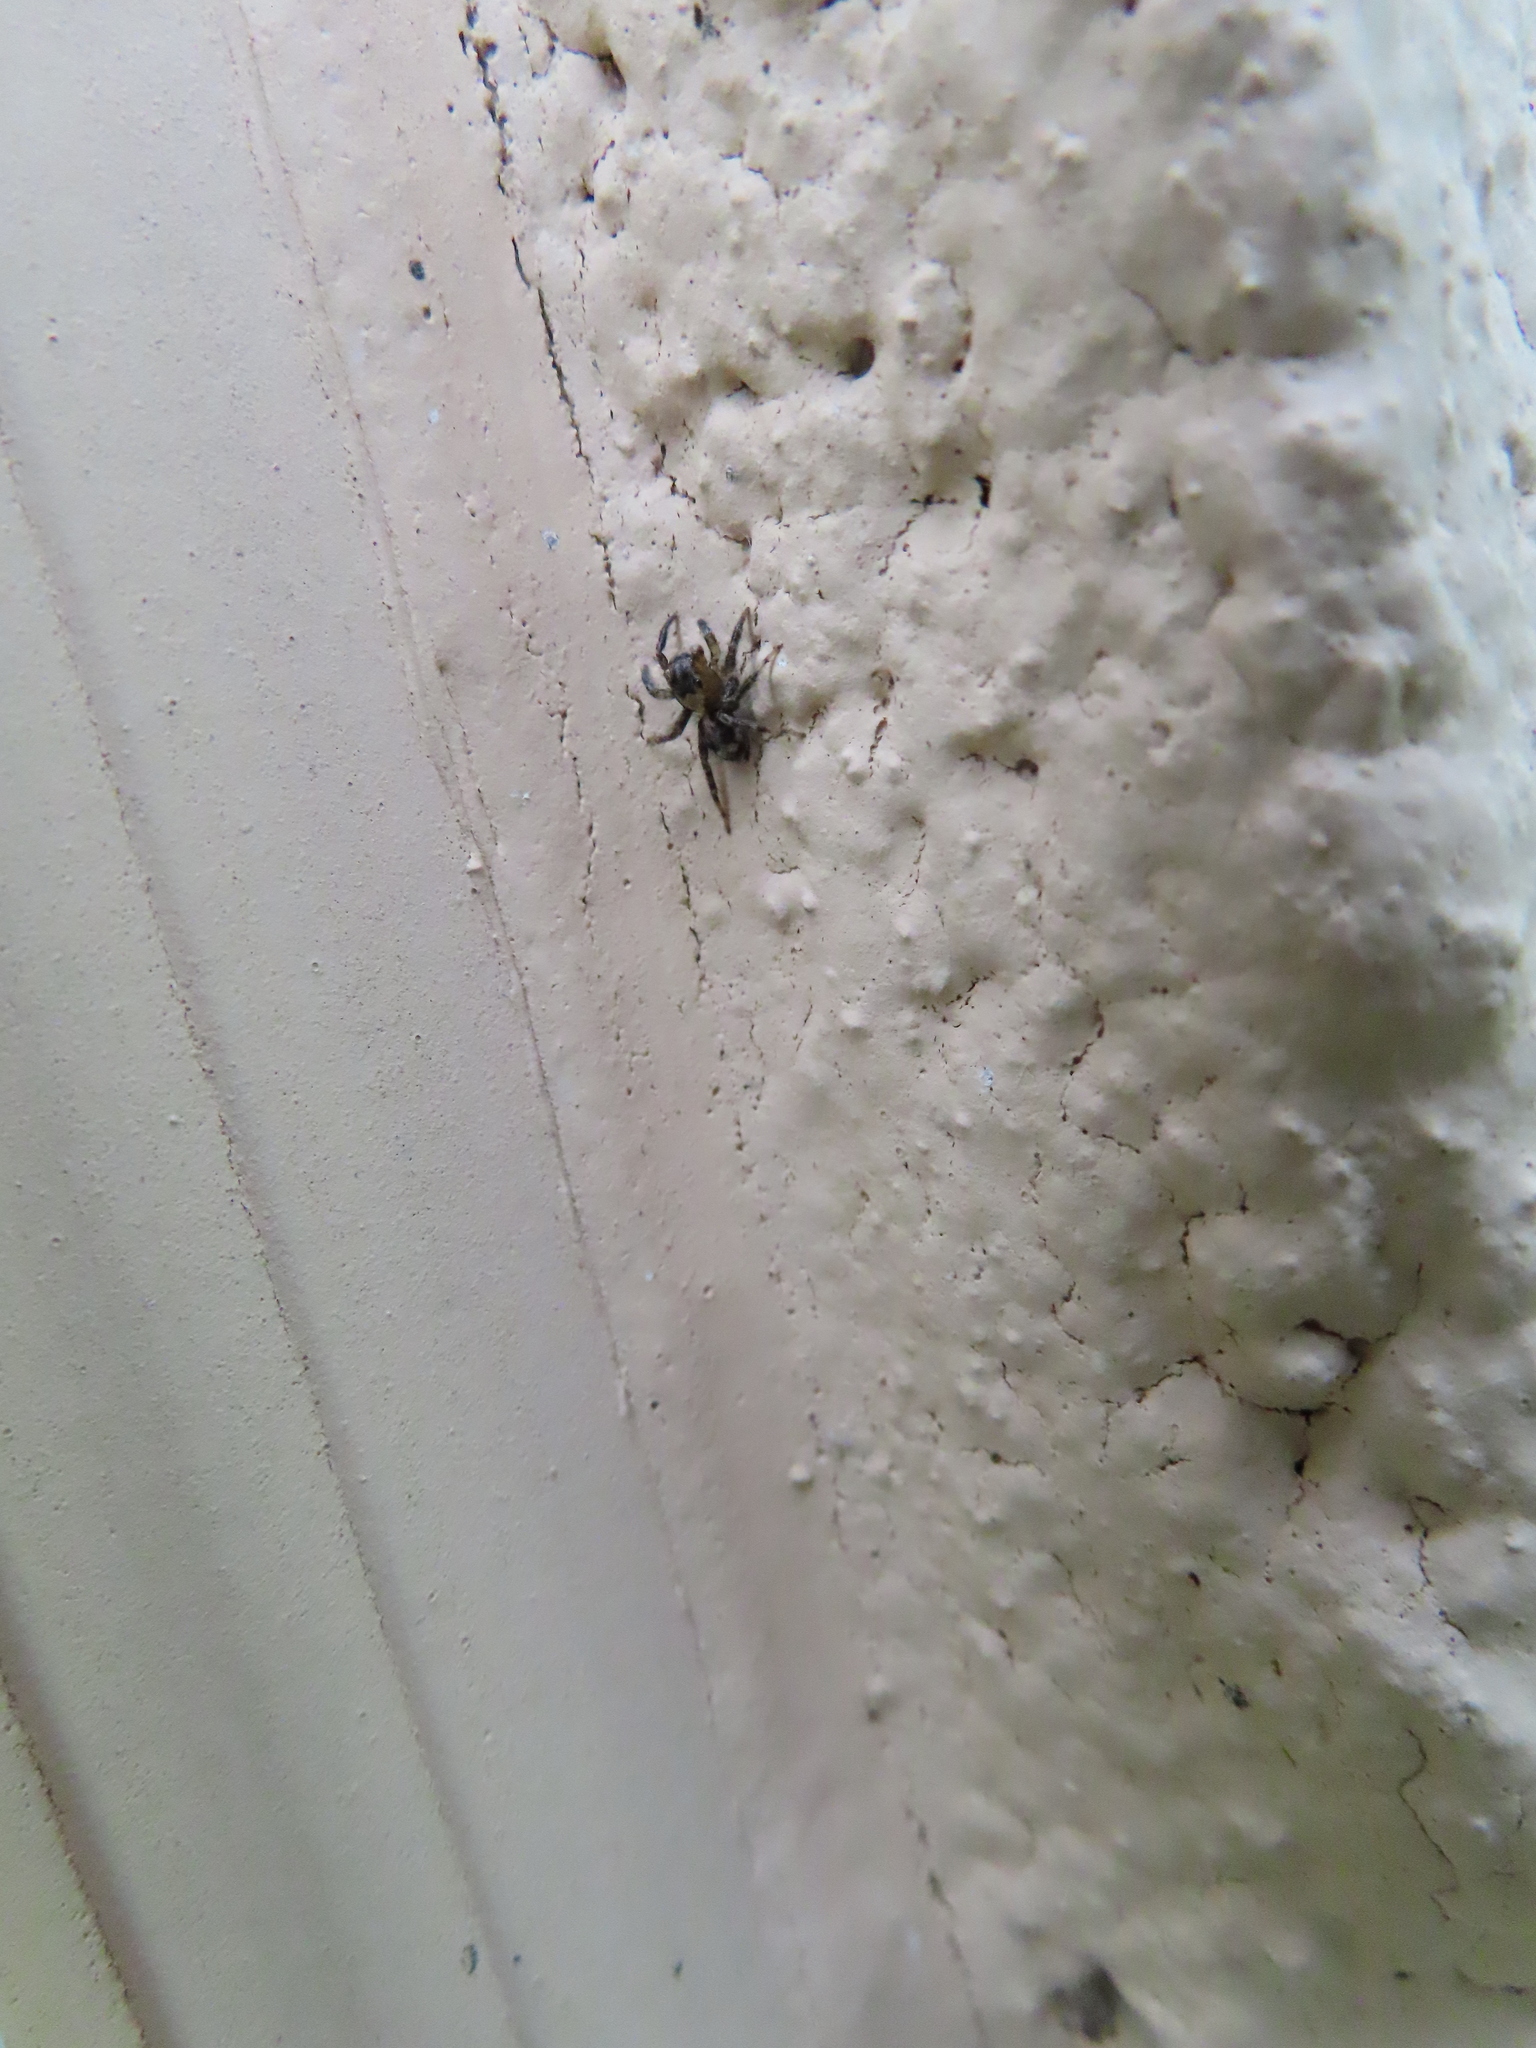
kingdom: Animalia
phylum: Arthropoda
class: Arachnida
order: Araneae
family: Salticidae
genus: Naphrys
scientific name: Naphrys pulex
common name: Flea jumping spider
